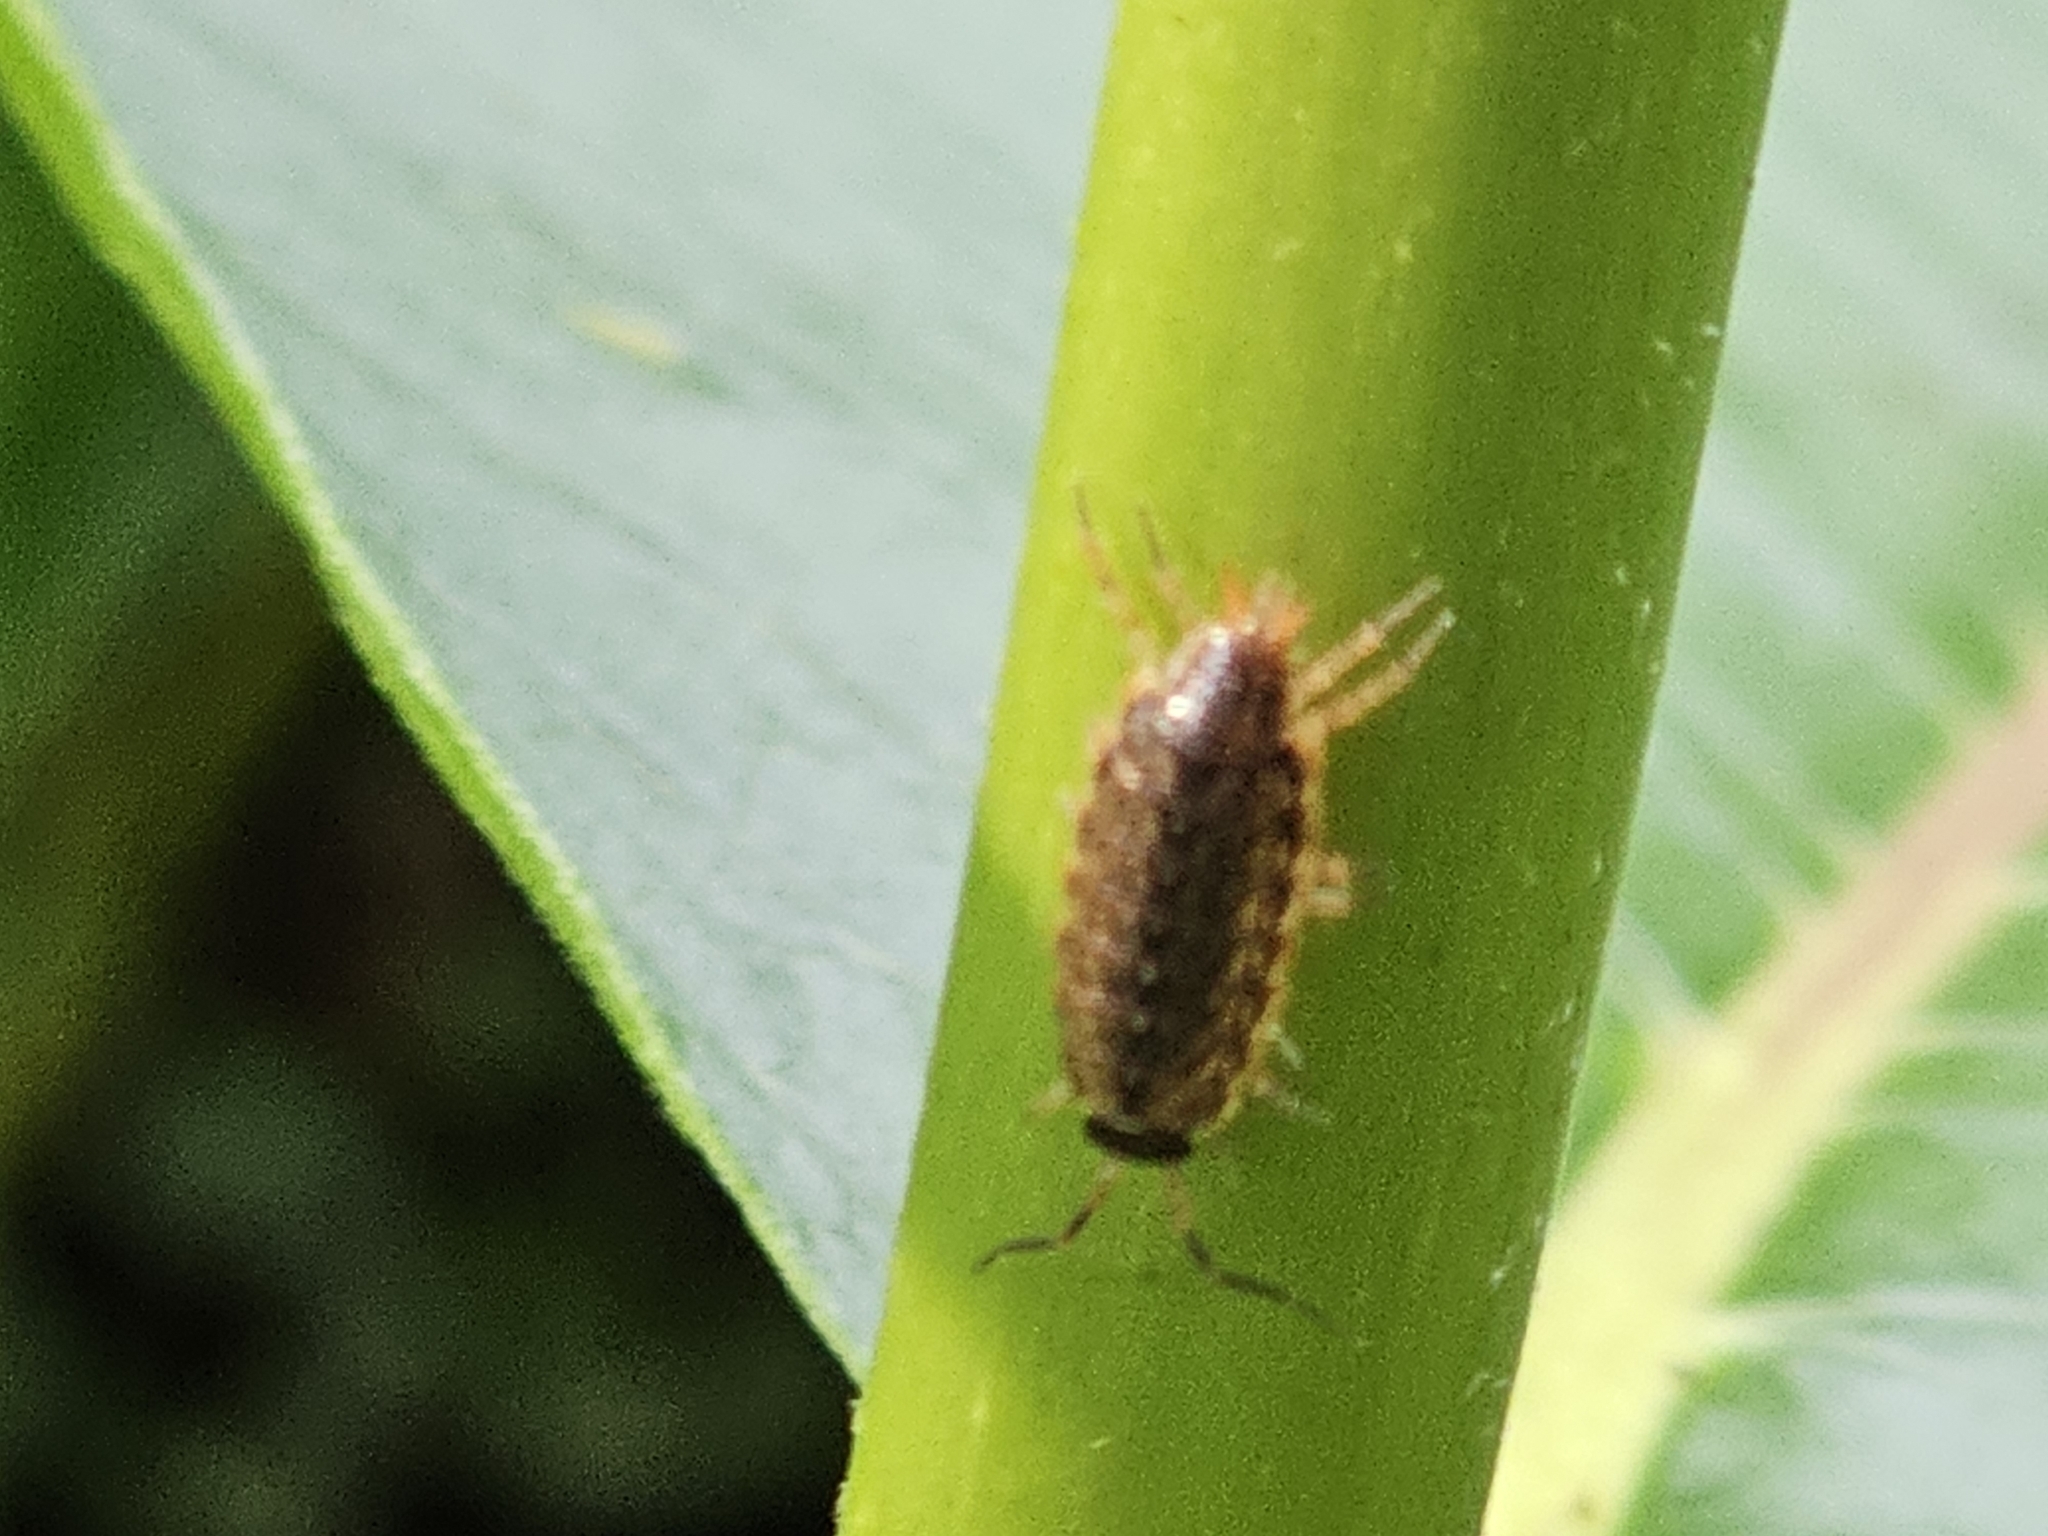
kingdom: Animalia
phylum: Arthropoda
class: Malacostraca
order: Isopoda
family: Philosciidae
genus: Philoscia
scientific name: Philoscia muscorum
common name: Common striped woodlouse
